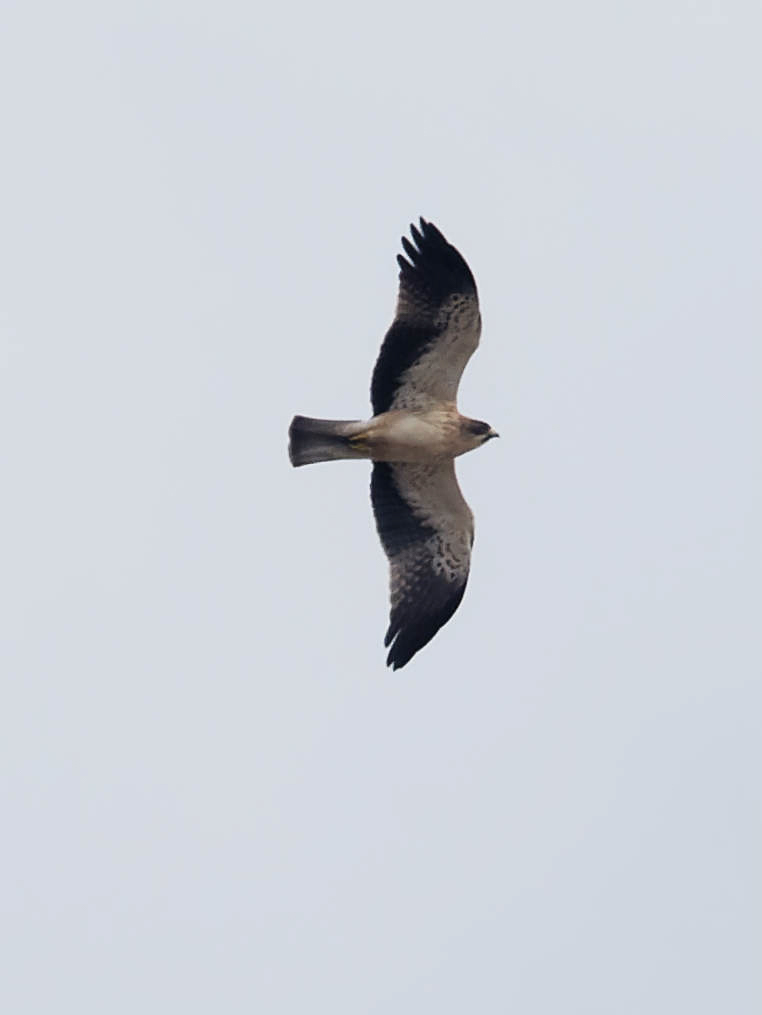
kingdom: Animalia
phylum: Chordata
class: Aves
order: Accipitriformes
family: Accipitridae
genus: Hieraaetus
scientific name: Hieraaetus pennatus
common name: Booted eagle
